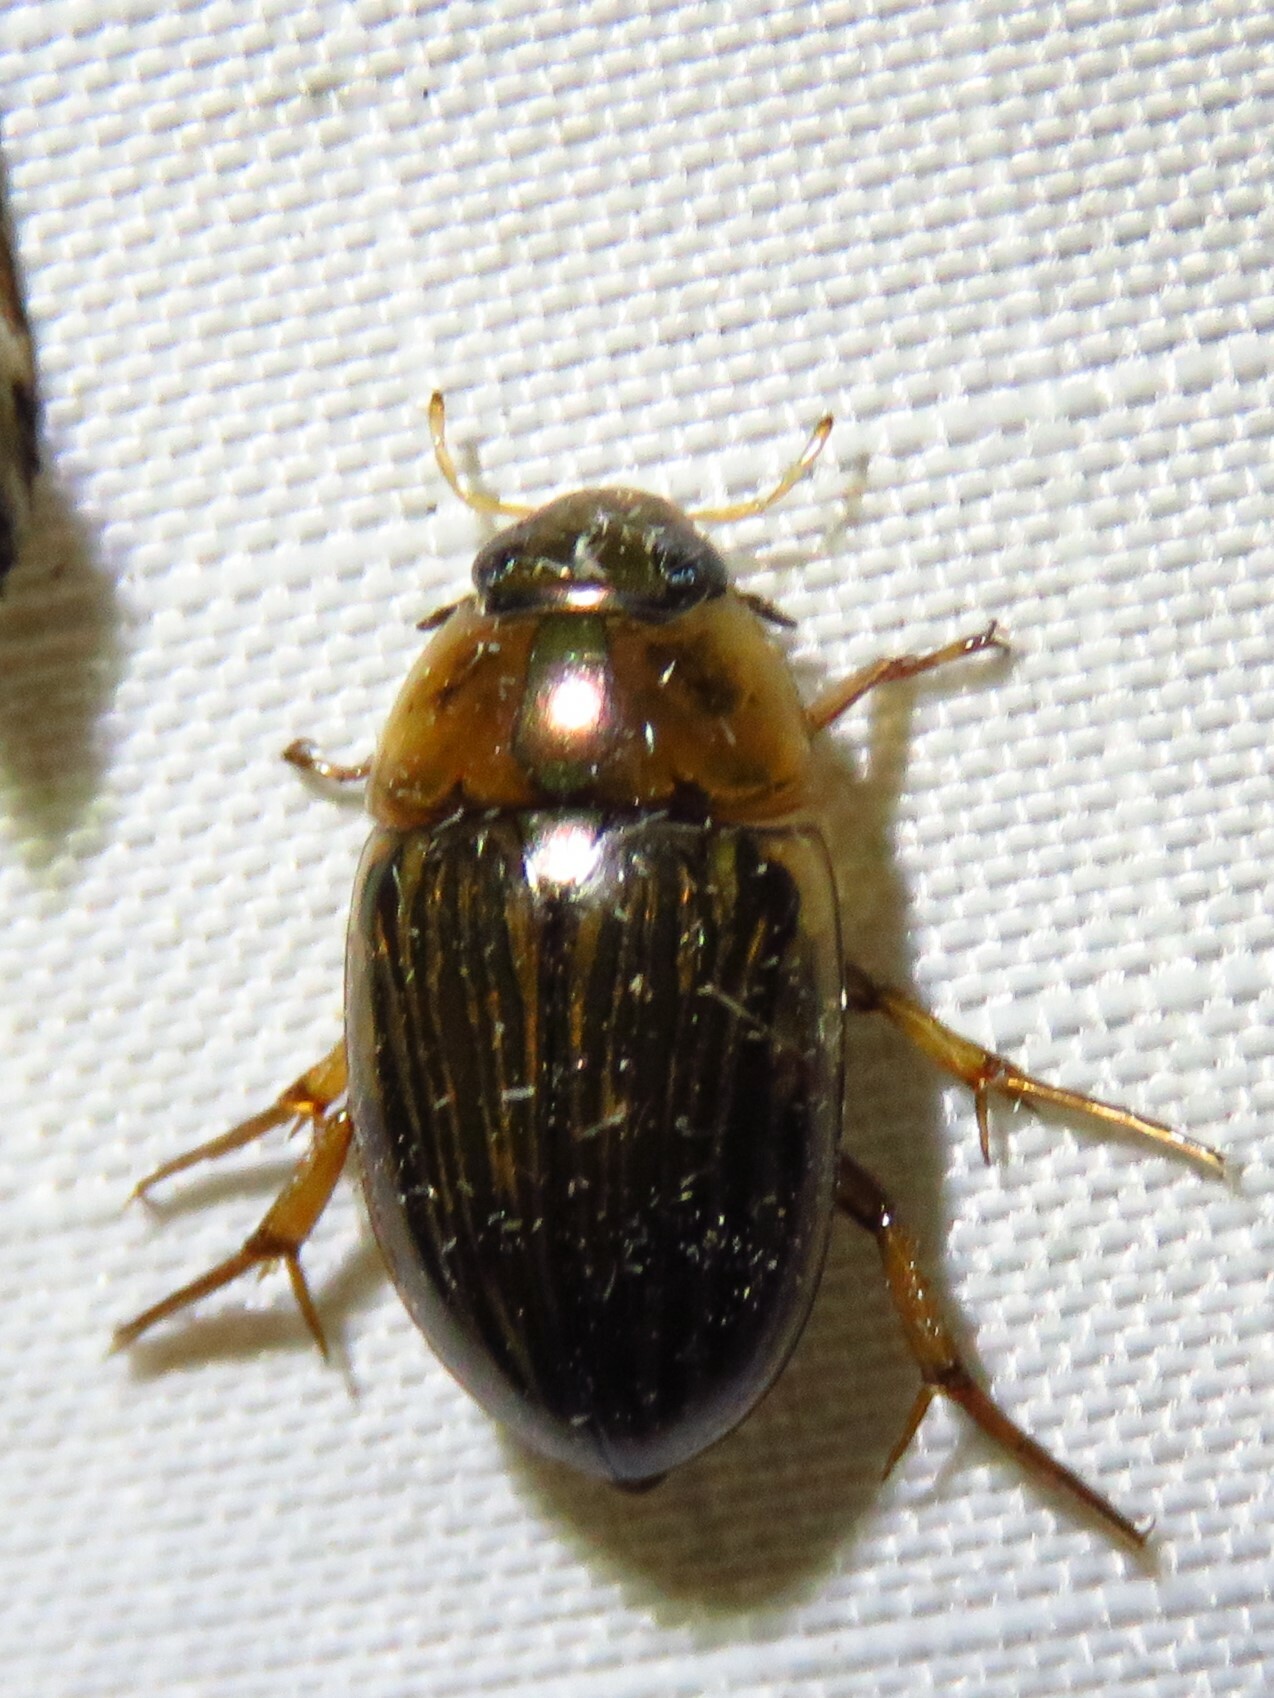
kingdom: Animalia
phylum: Arthropoda
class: Insecta
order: Coleoptera
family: Hydrophilidae
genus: Tropisternus
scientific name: Tropisternus collaris
